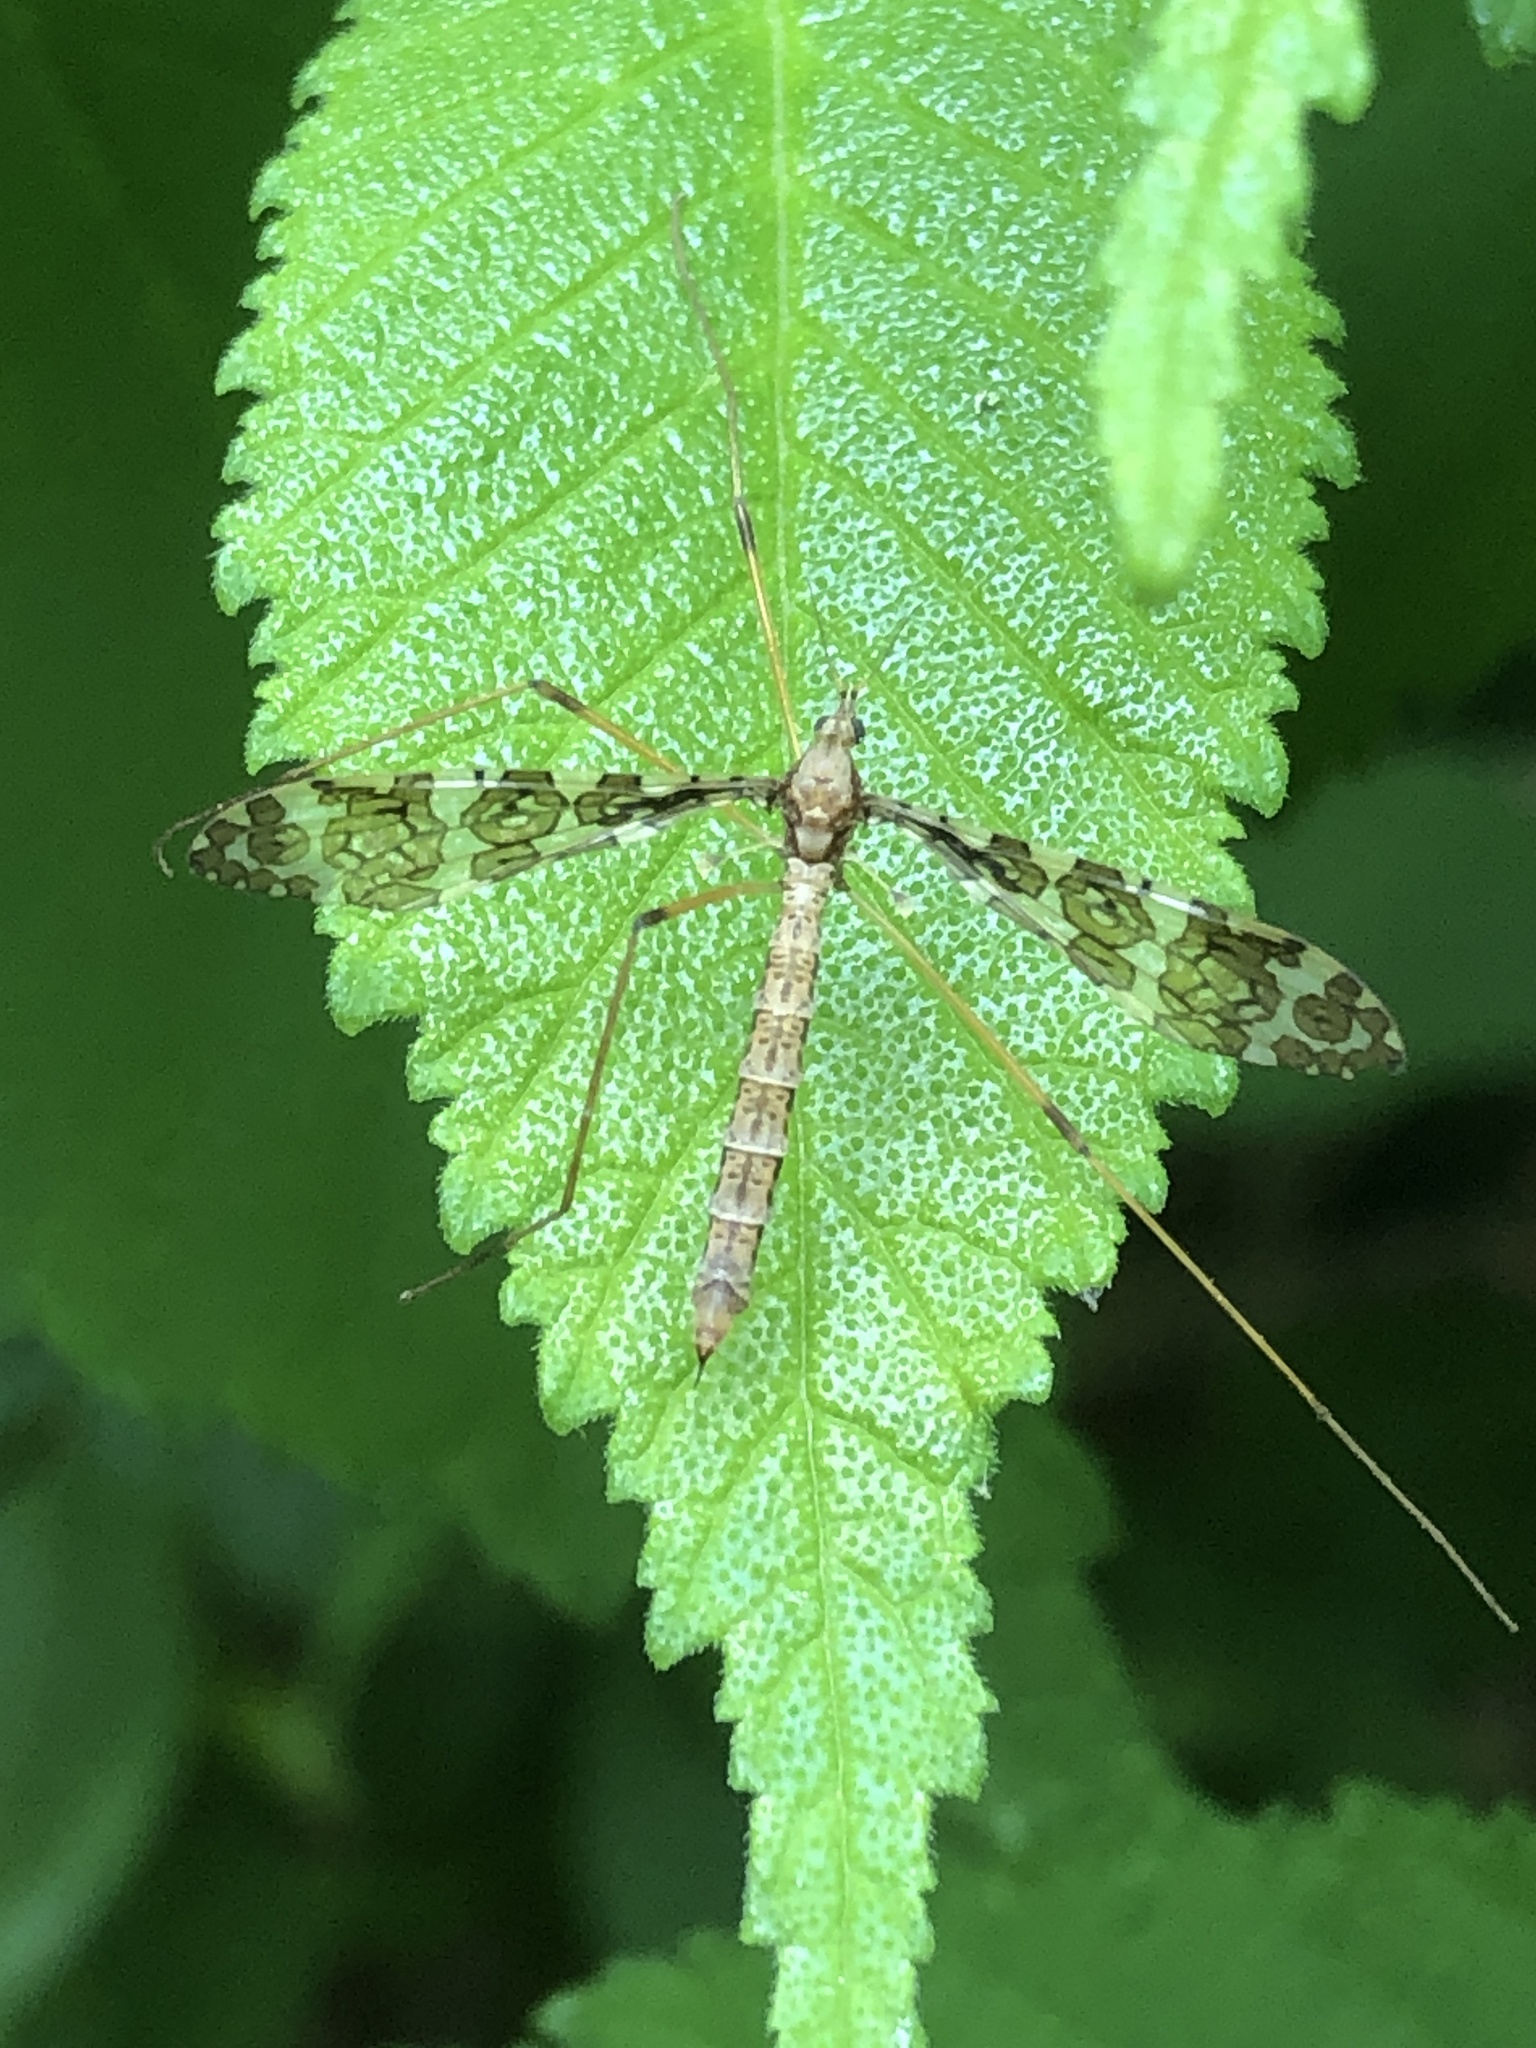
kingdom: Animalia
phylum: Arthropoda
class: Insecta
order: Diptera
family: Limoniidae
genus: Epiphragma
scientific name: Epiphragma fasciapenne
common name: Band-winged crane fly
